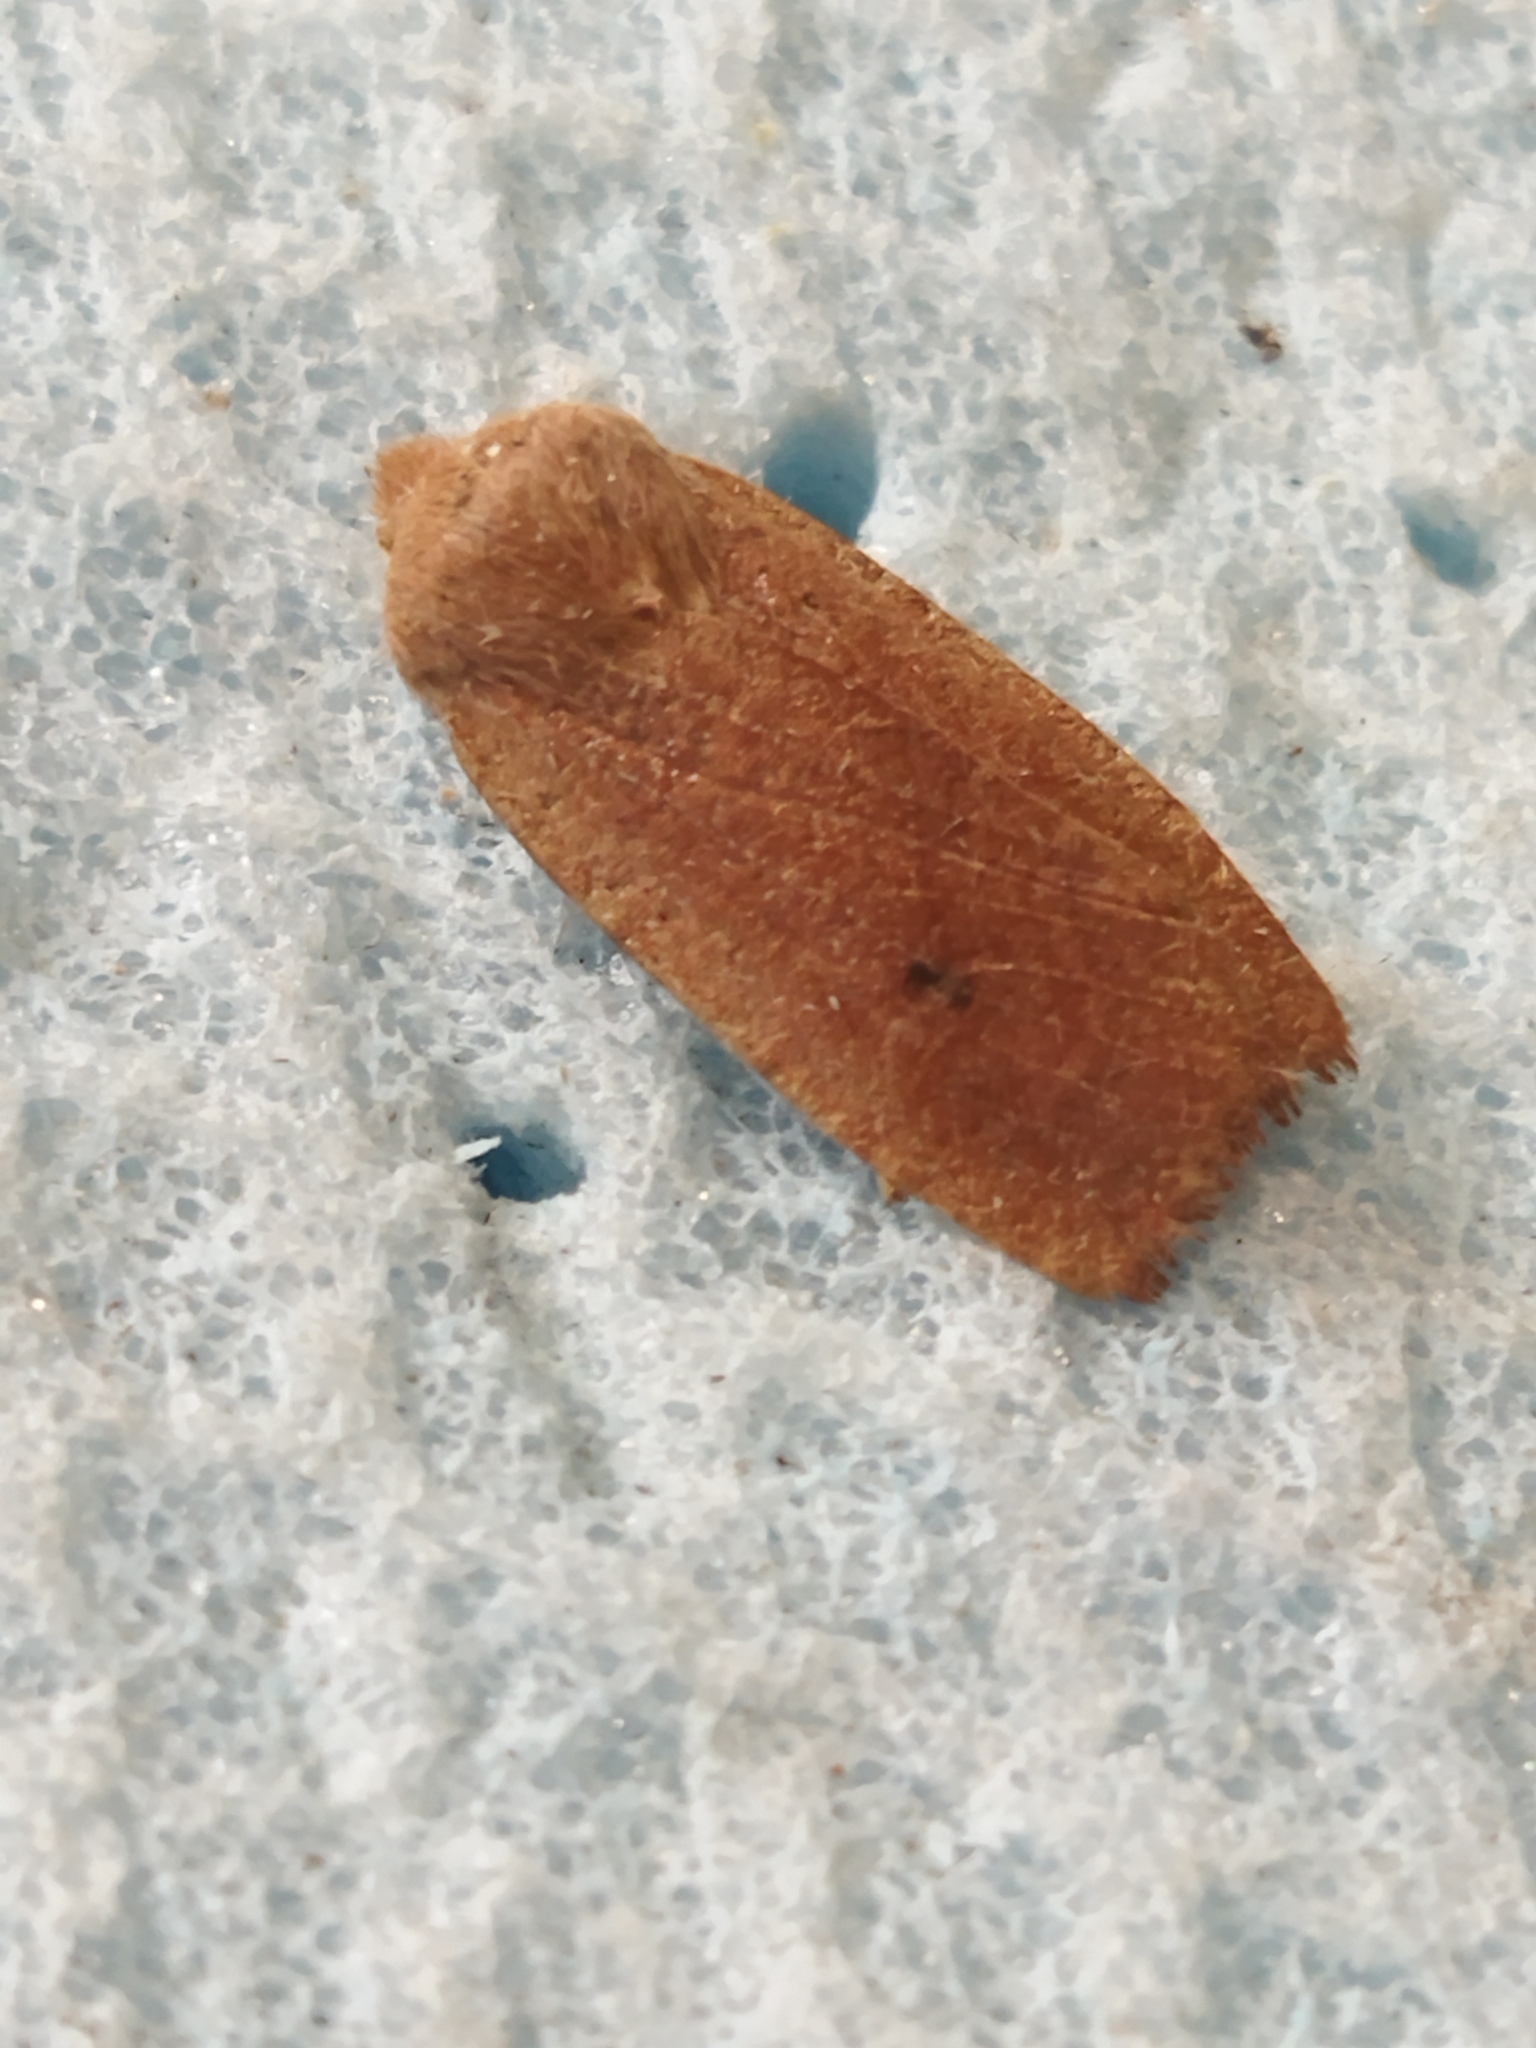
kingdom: Animalia
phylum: Arthropoda
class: Insecta
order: Lepidoptera
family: Noctuidae
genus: Conistra
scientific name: Conistra ragusae
